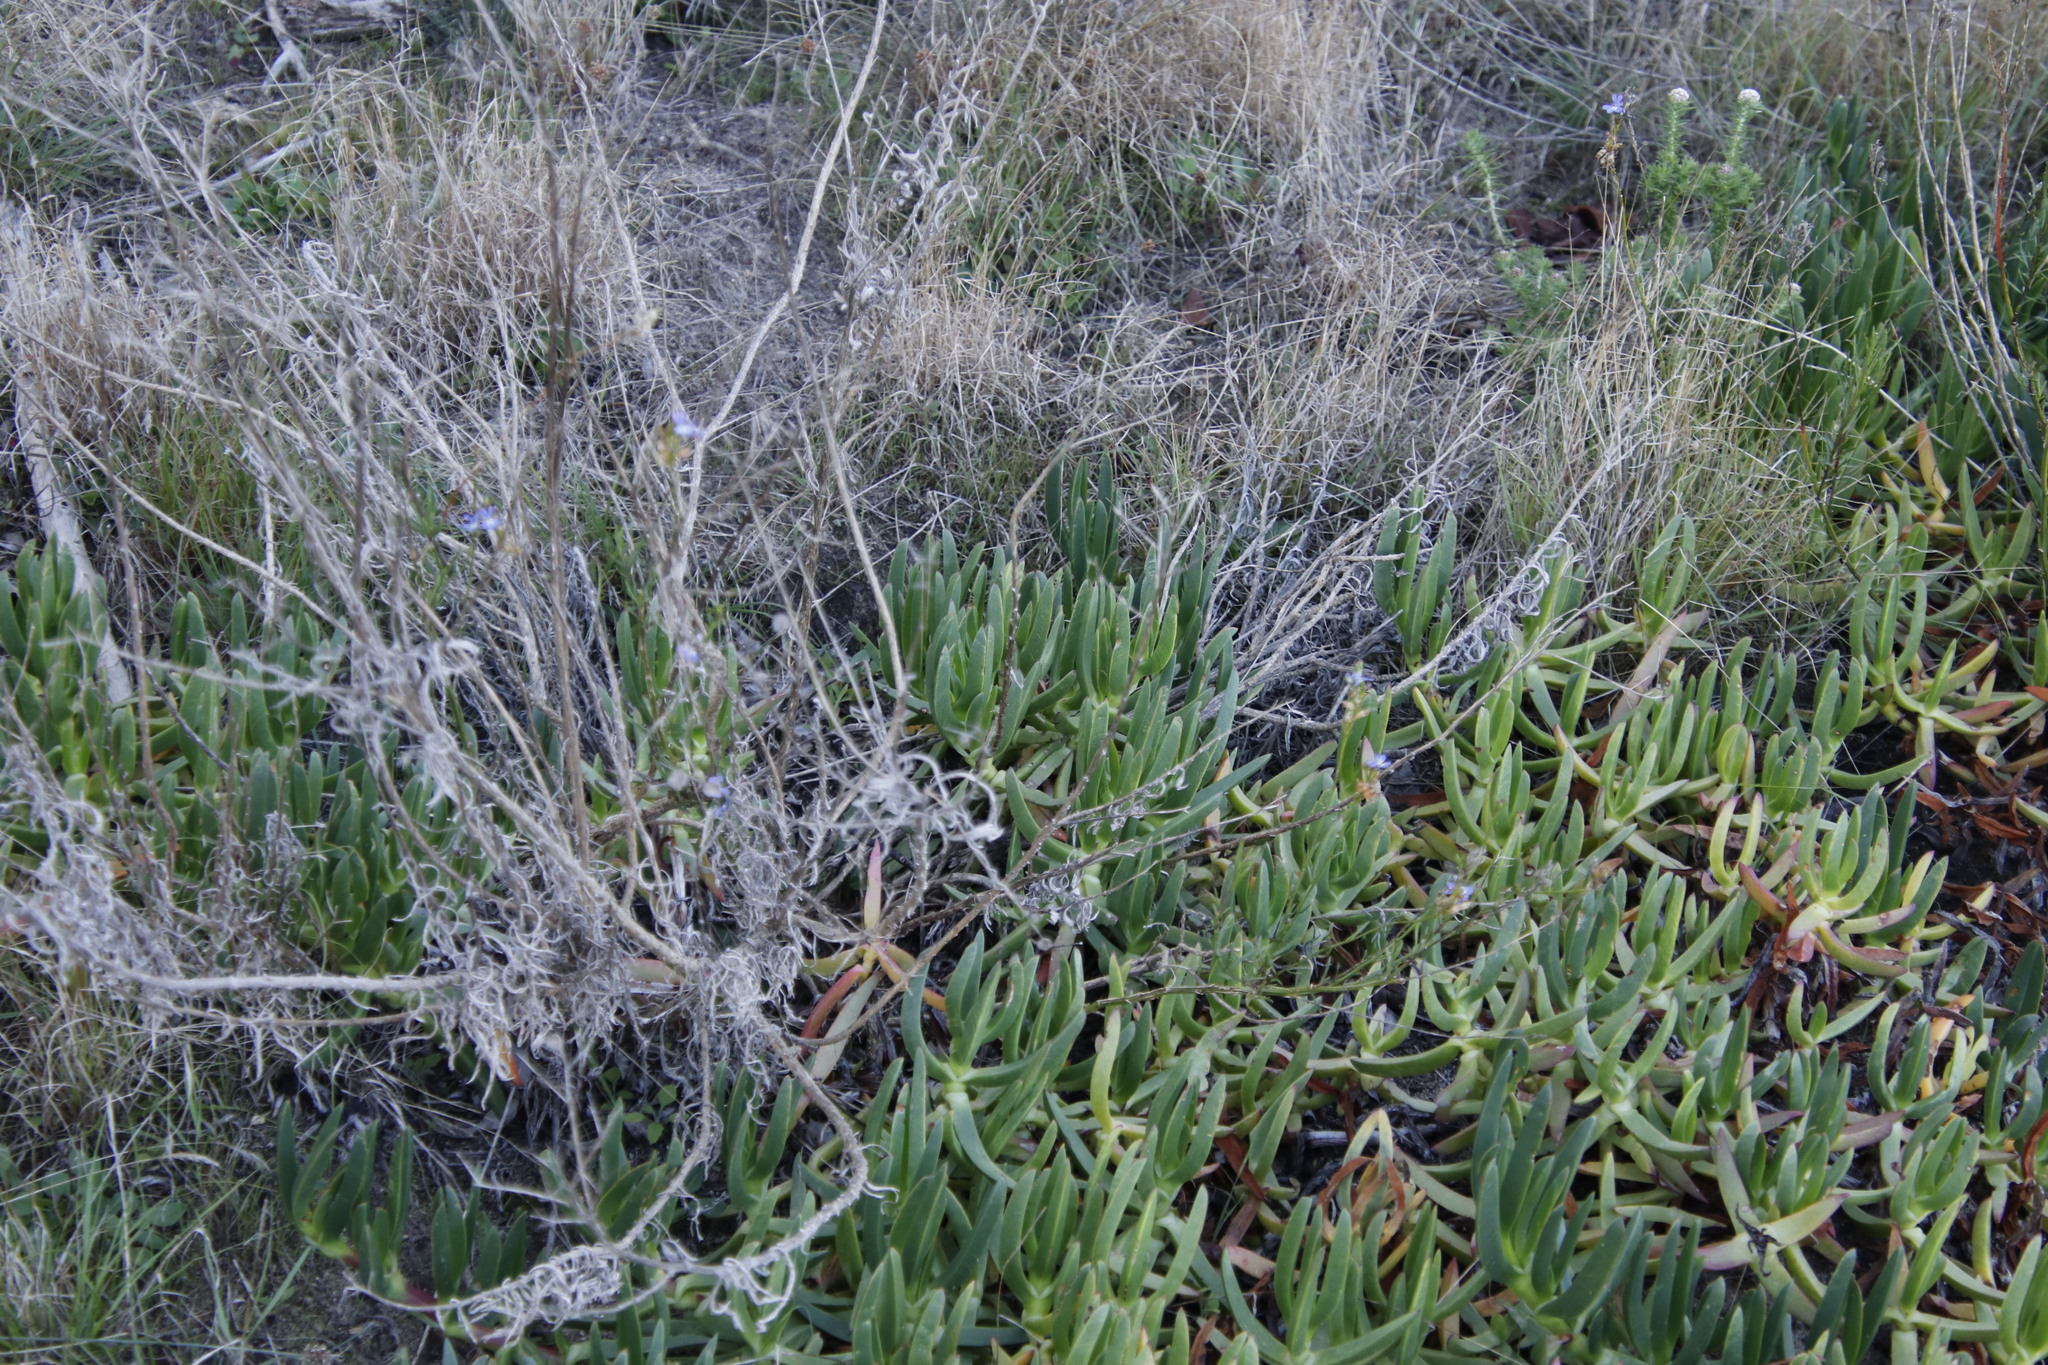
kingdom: Plantae
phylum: Tracheophyta
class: Magnoliopsida
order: Caryophyllales
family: Aizoaceae
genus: Carpobrotus
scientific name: Carpobrotus edulis
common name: Hottentot-fig
